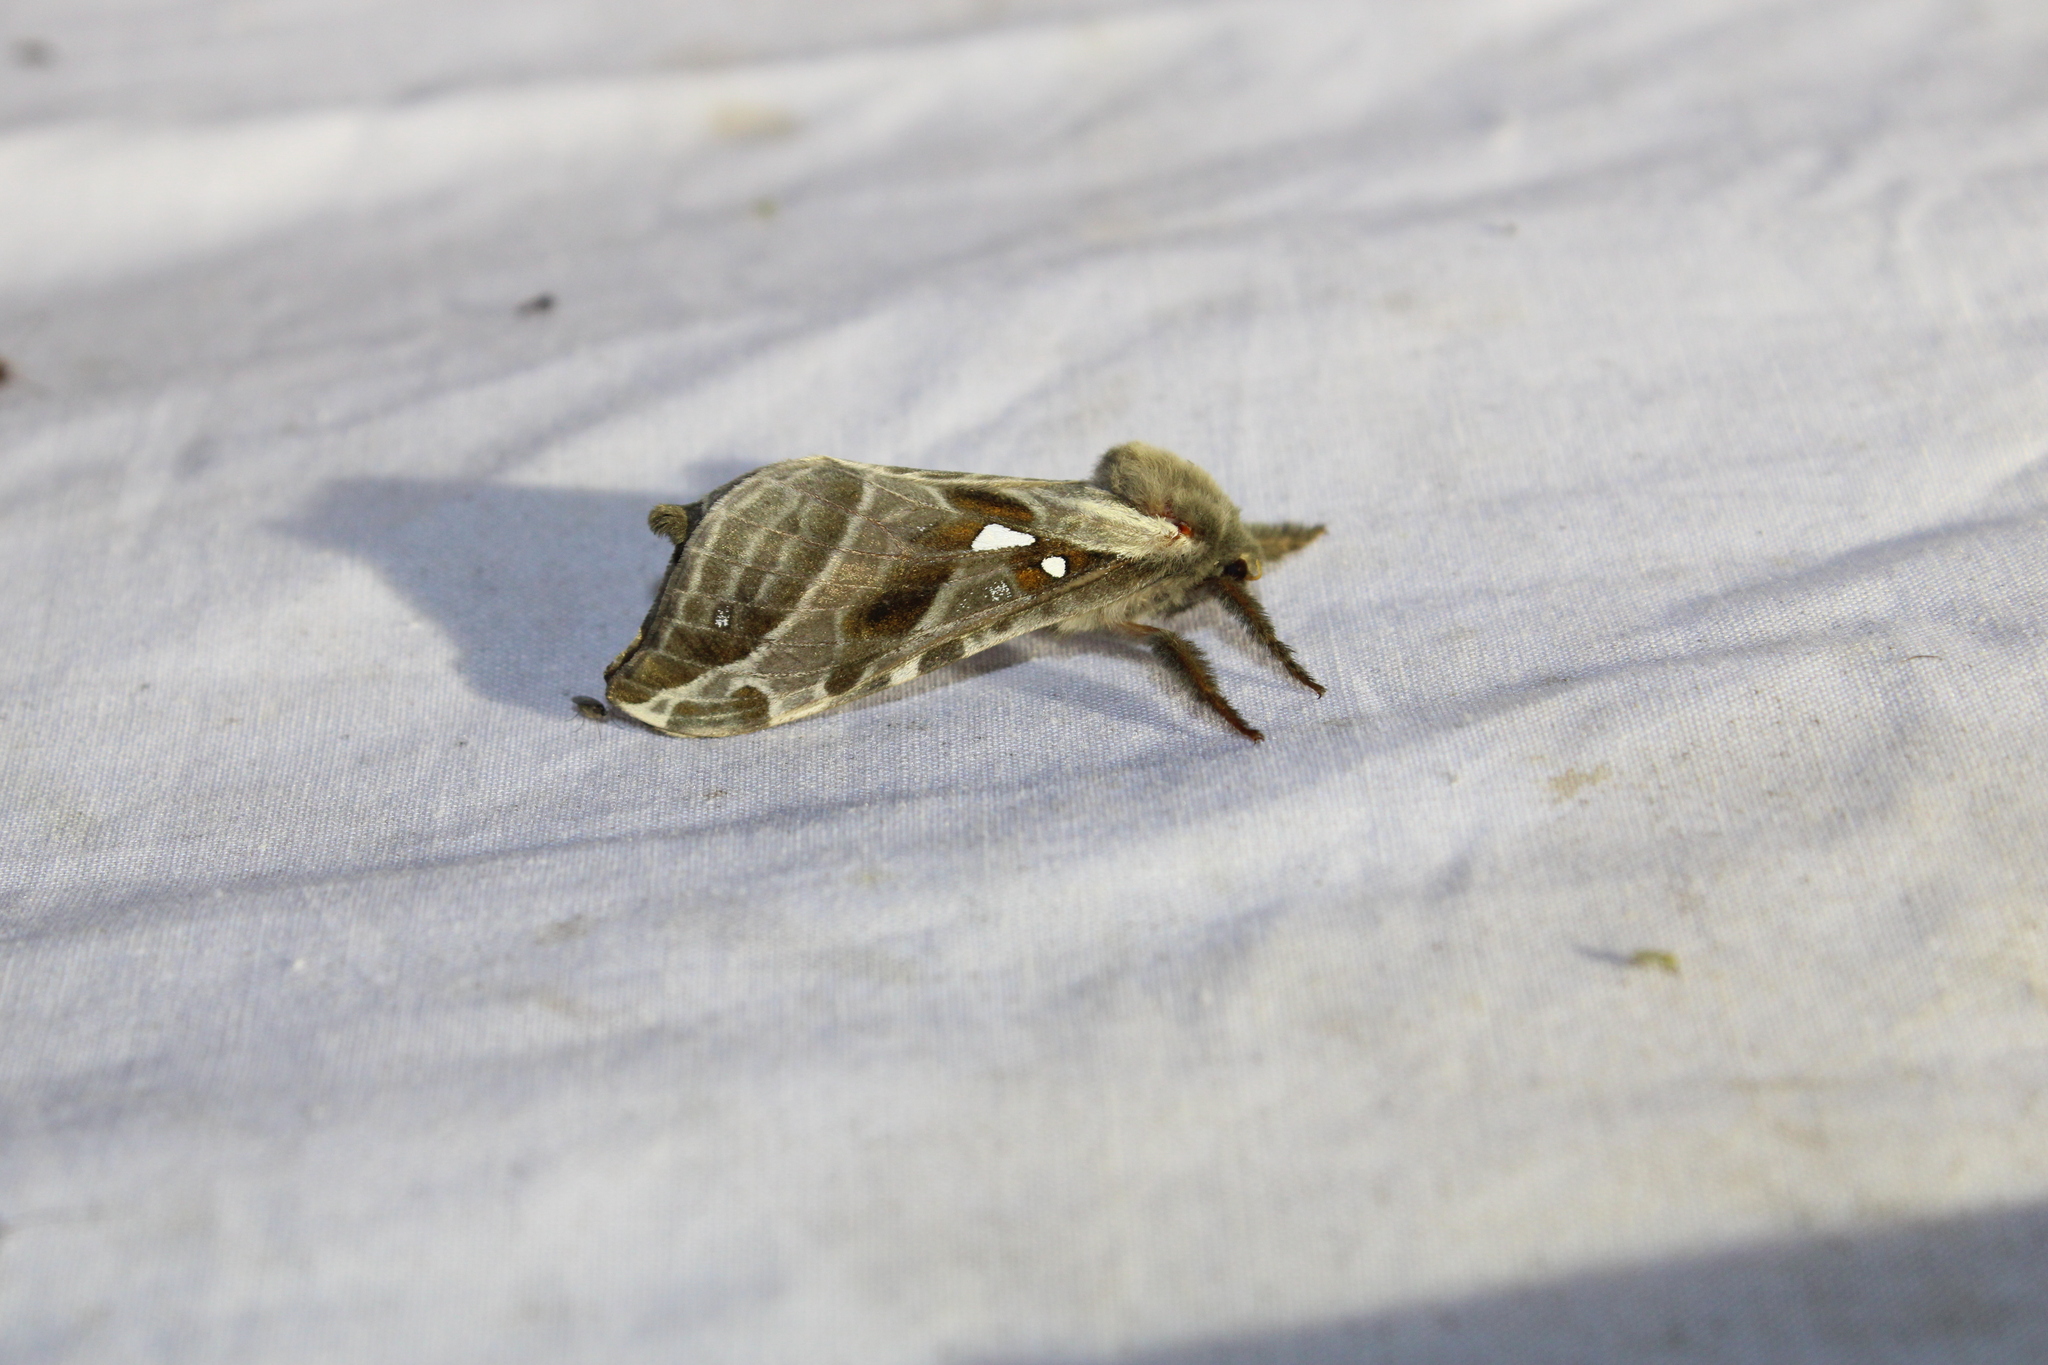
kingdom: Animalia
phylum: Arthropoda
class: Insecta
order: Lepidoptera
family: Hepialidae
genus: Sthenopis
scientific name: Sthenopis argenteomaculatus
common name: Silver-spotted ghost moth
